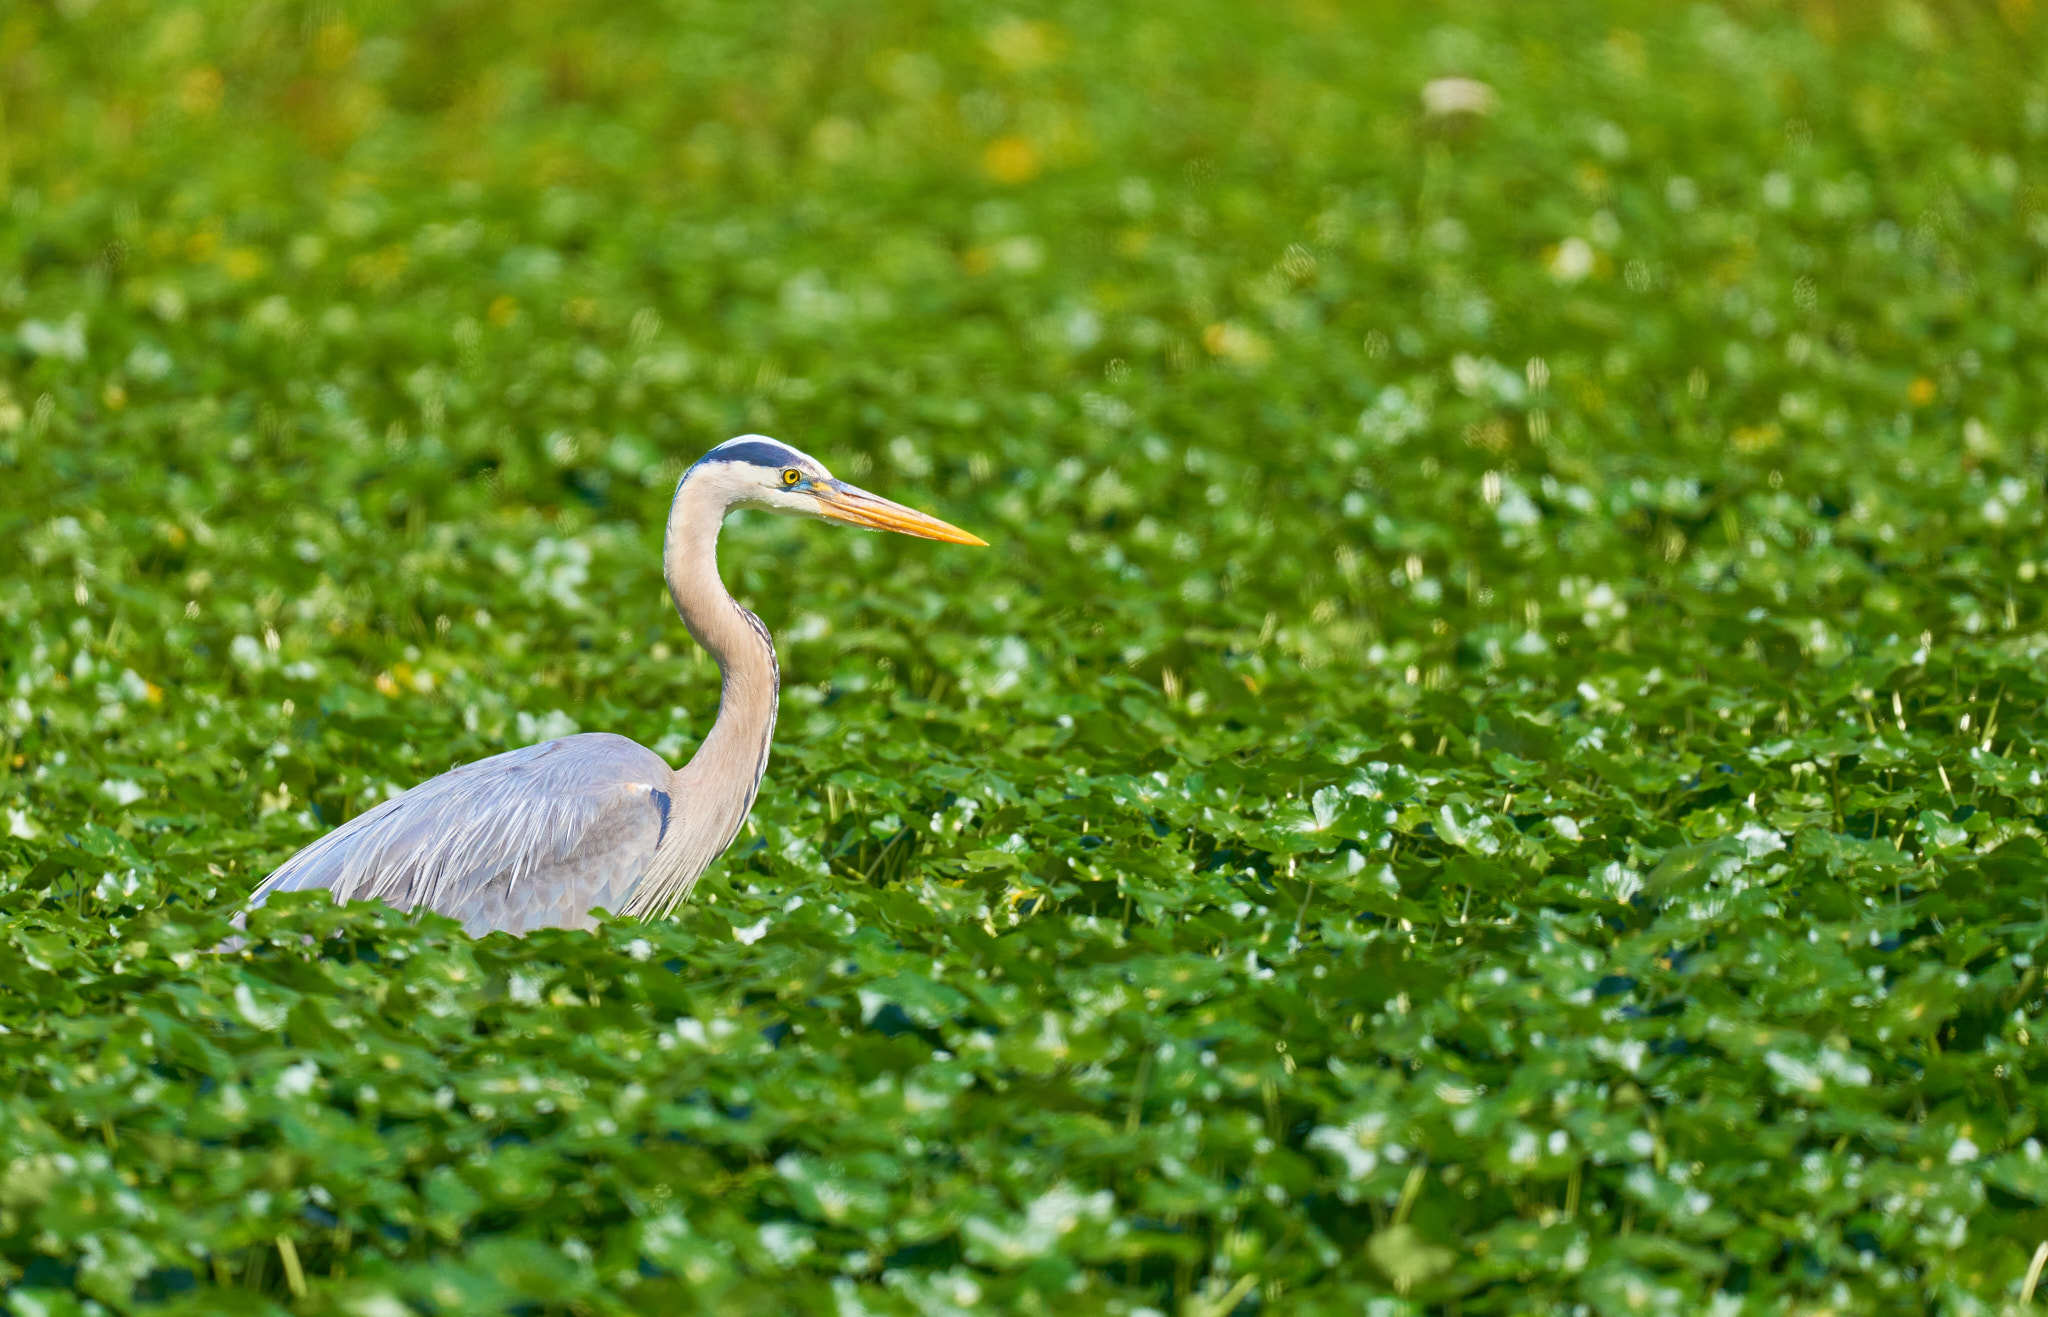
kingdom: Animalia
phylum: Chordata
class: Aves
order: Pelecaniformes
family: Ardeidae
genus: Ardea
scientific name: Ardea herodias
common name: Great blue heron
